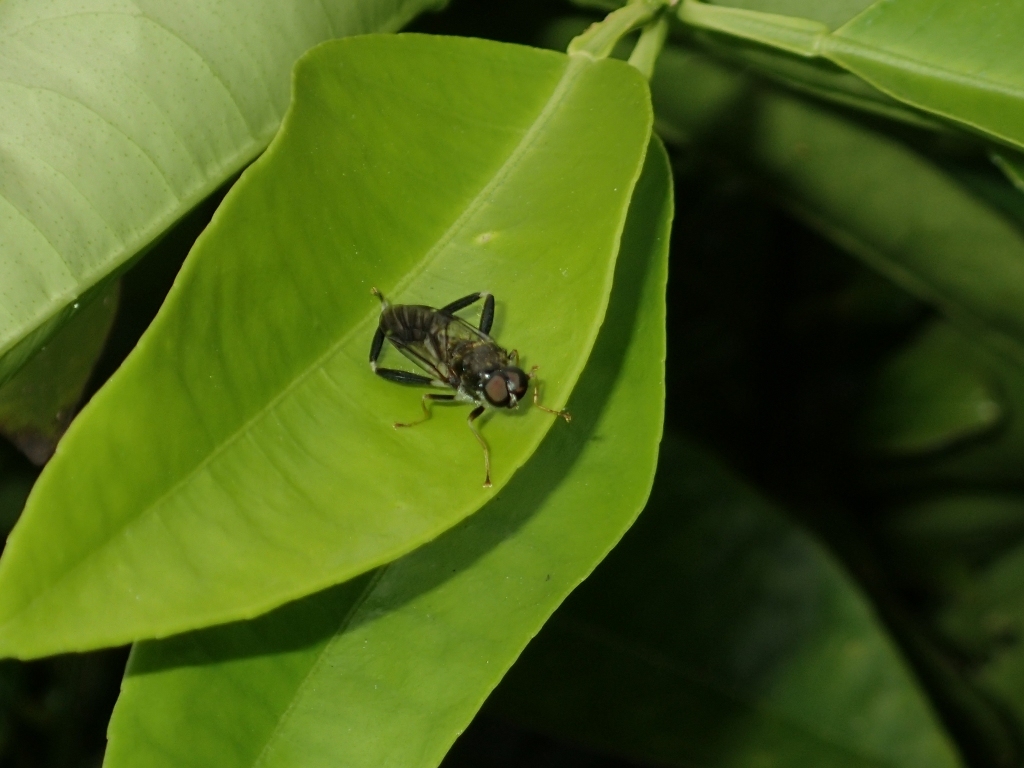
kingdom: Animalia
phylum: Arthropoda
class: Insecta
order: Diptera
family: Stratiomyidae
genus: Exaireta
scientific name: Exaireta spinigera
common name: Blue soldier fly
